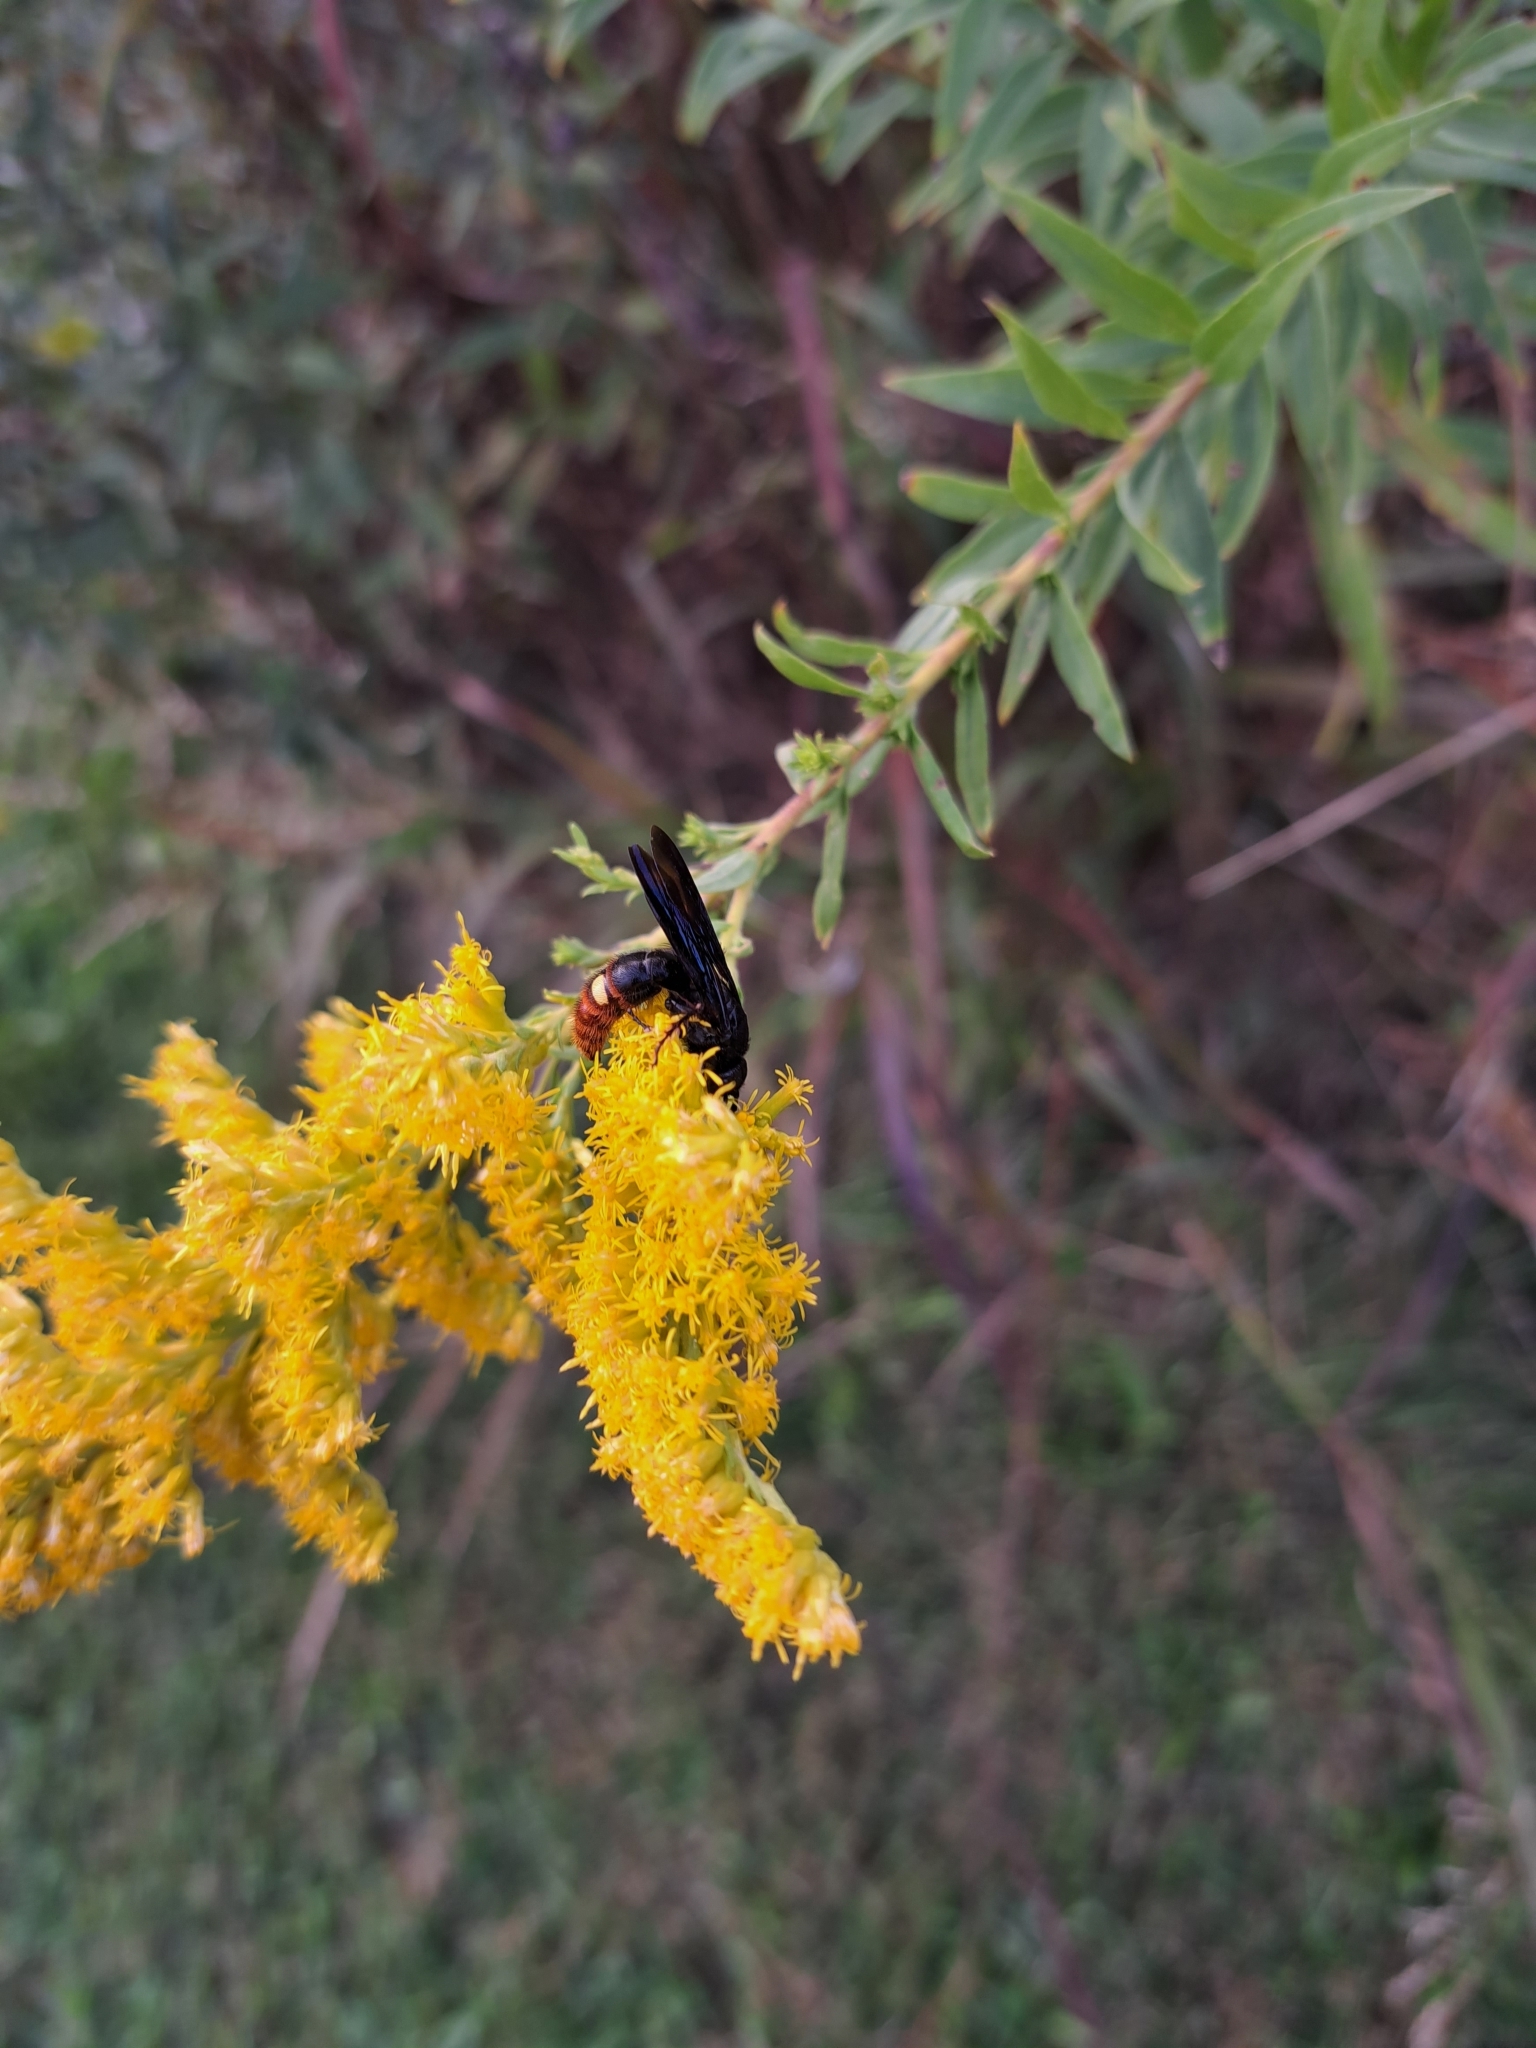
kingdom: Animalia
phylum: Arthropoda
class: Insecta
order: Hymenoptera
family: Scoliidae
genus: Scolia
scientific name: Scolia dubia
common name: Blue-winged scoliid wasp
